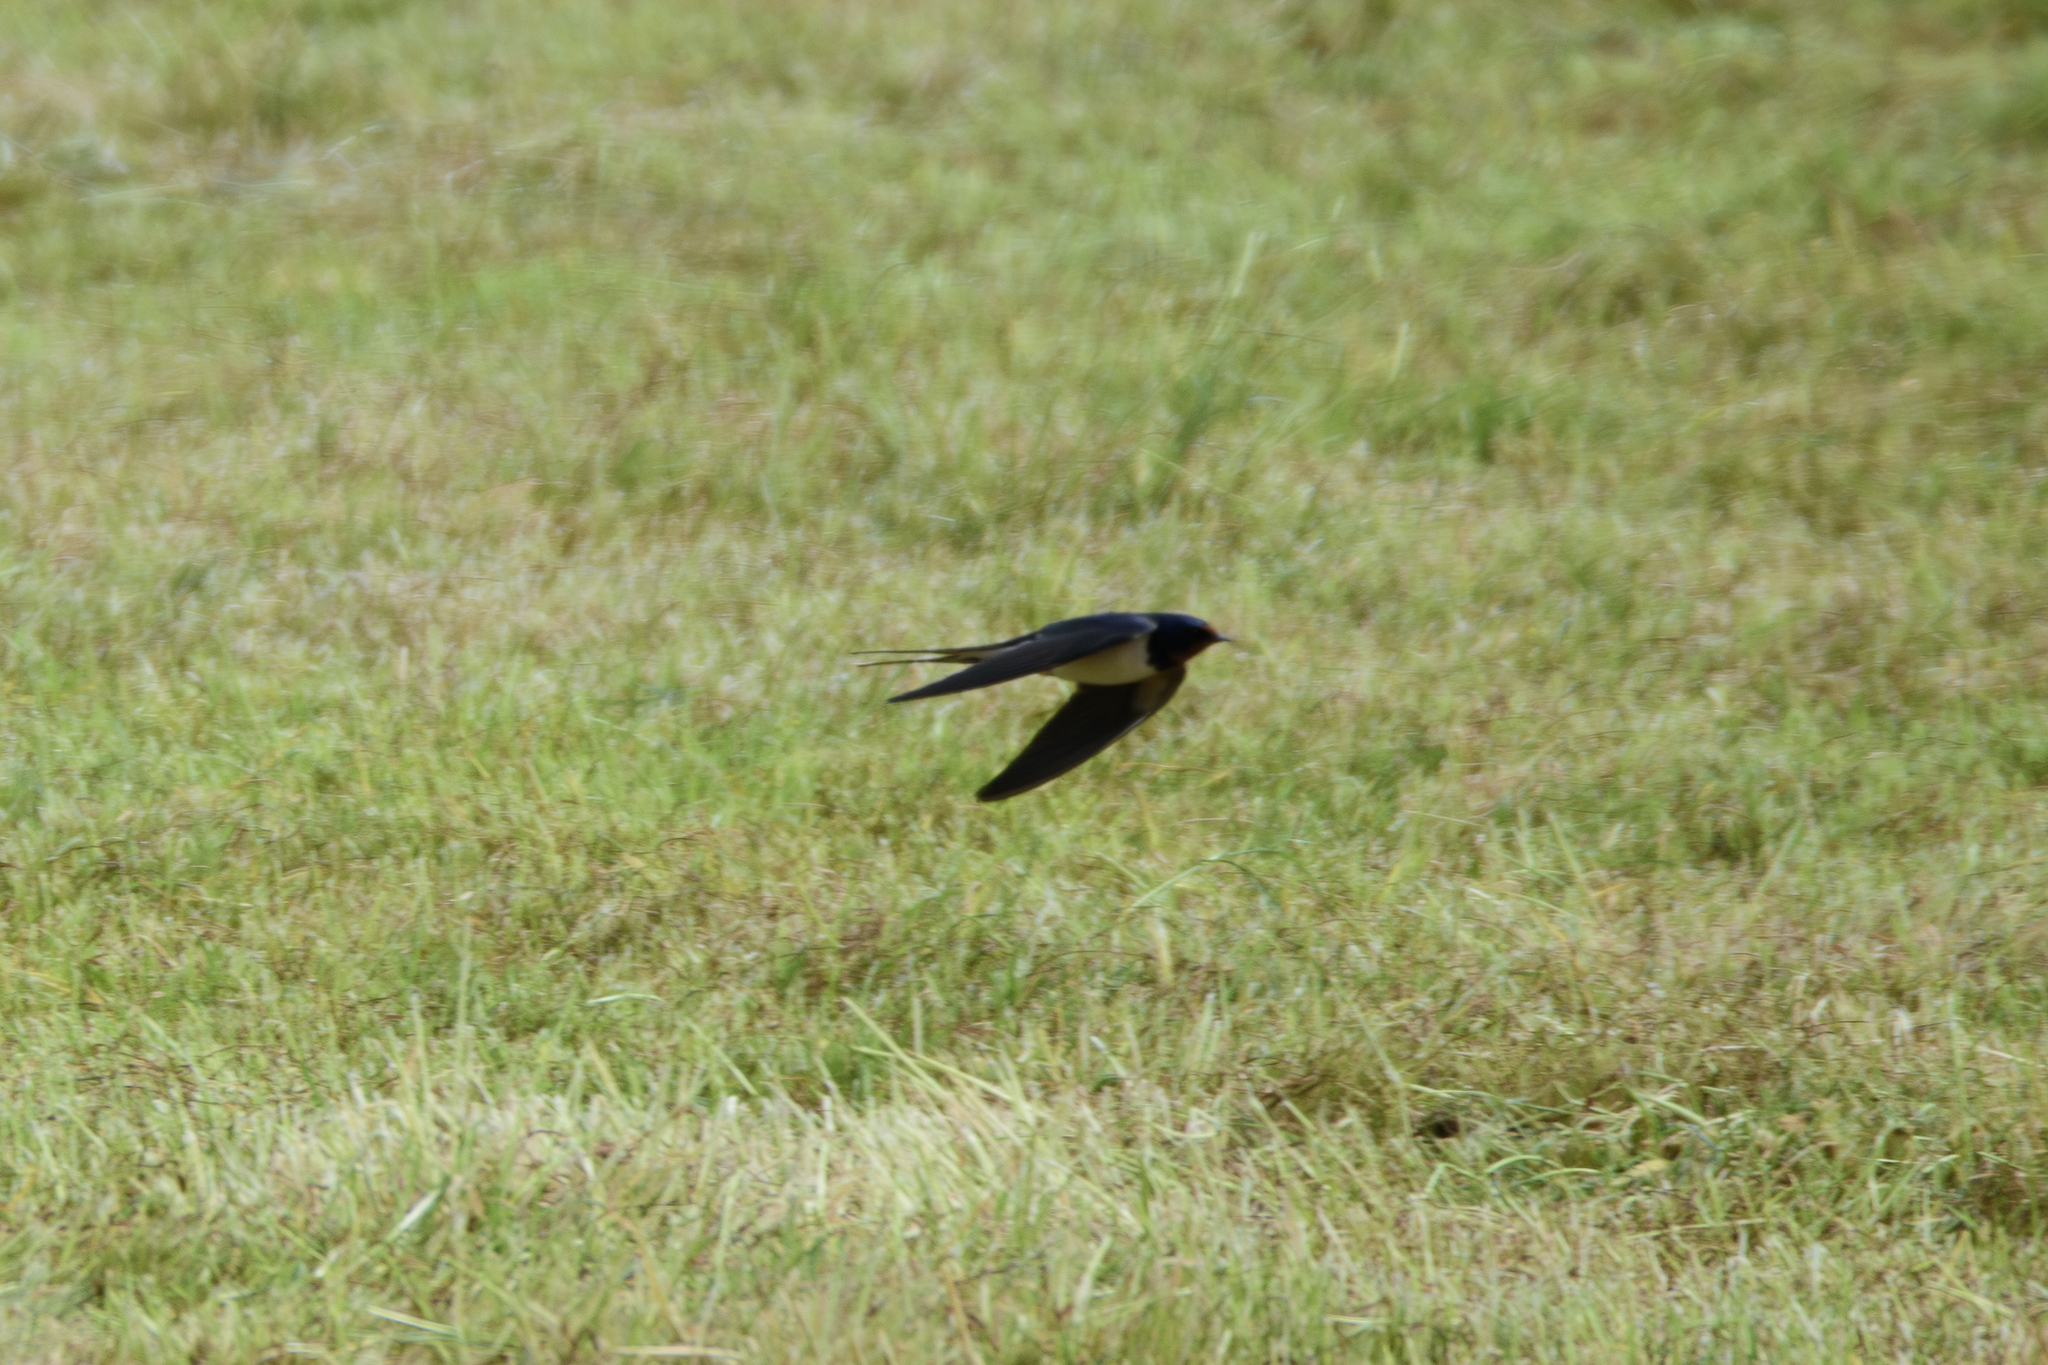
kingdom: Animalia
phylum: Chordata
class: Aves
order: Passeriformes
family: Hirundinidae
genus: Hirundo
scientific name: Hirundo rustica
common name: Barn swallow
